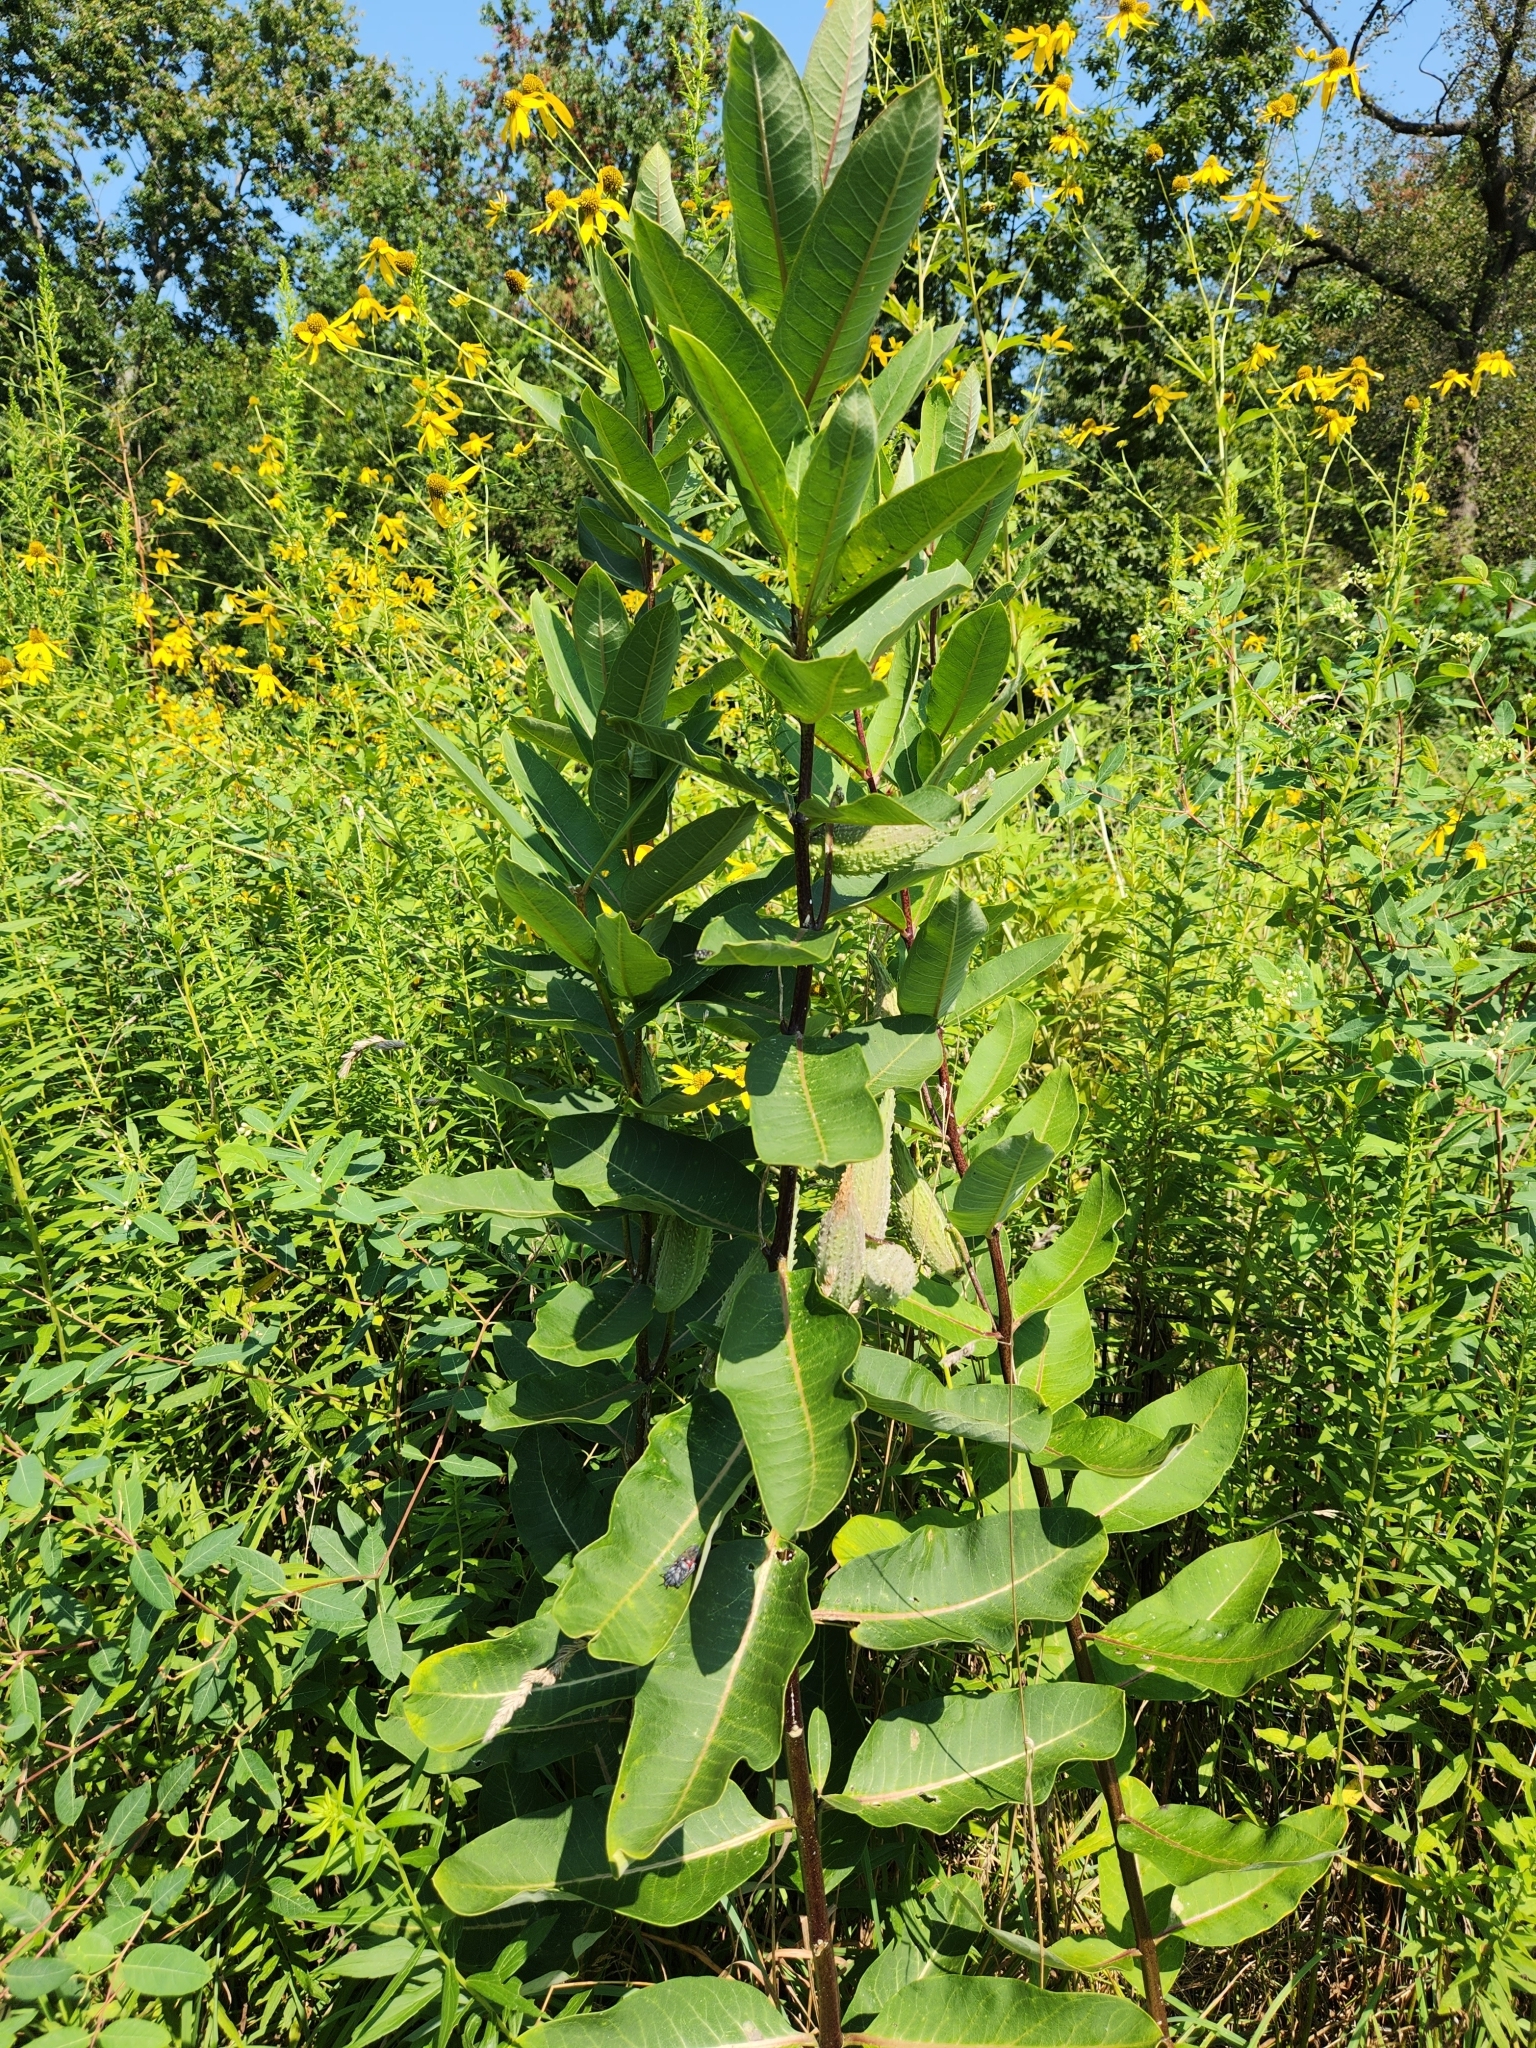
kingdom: Plantae
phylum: Tracheophyta
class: Magnoliopsida
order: Gentianales
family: Apocynaceae
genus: Asclepias
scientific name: Asclepias syriaca
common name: Common milkweed
